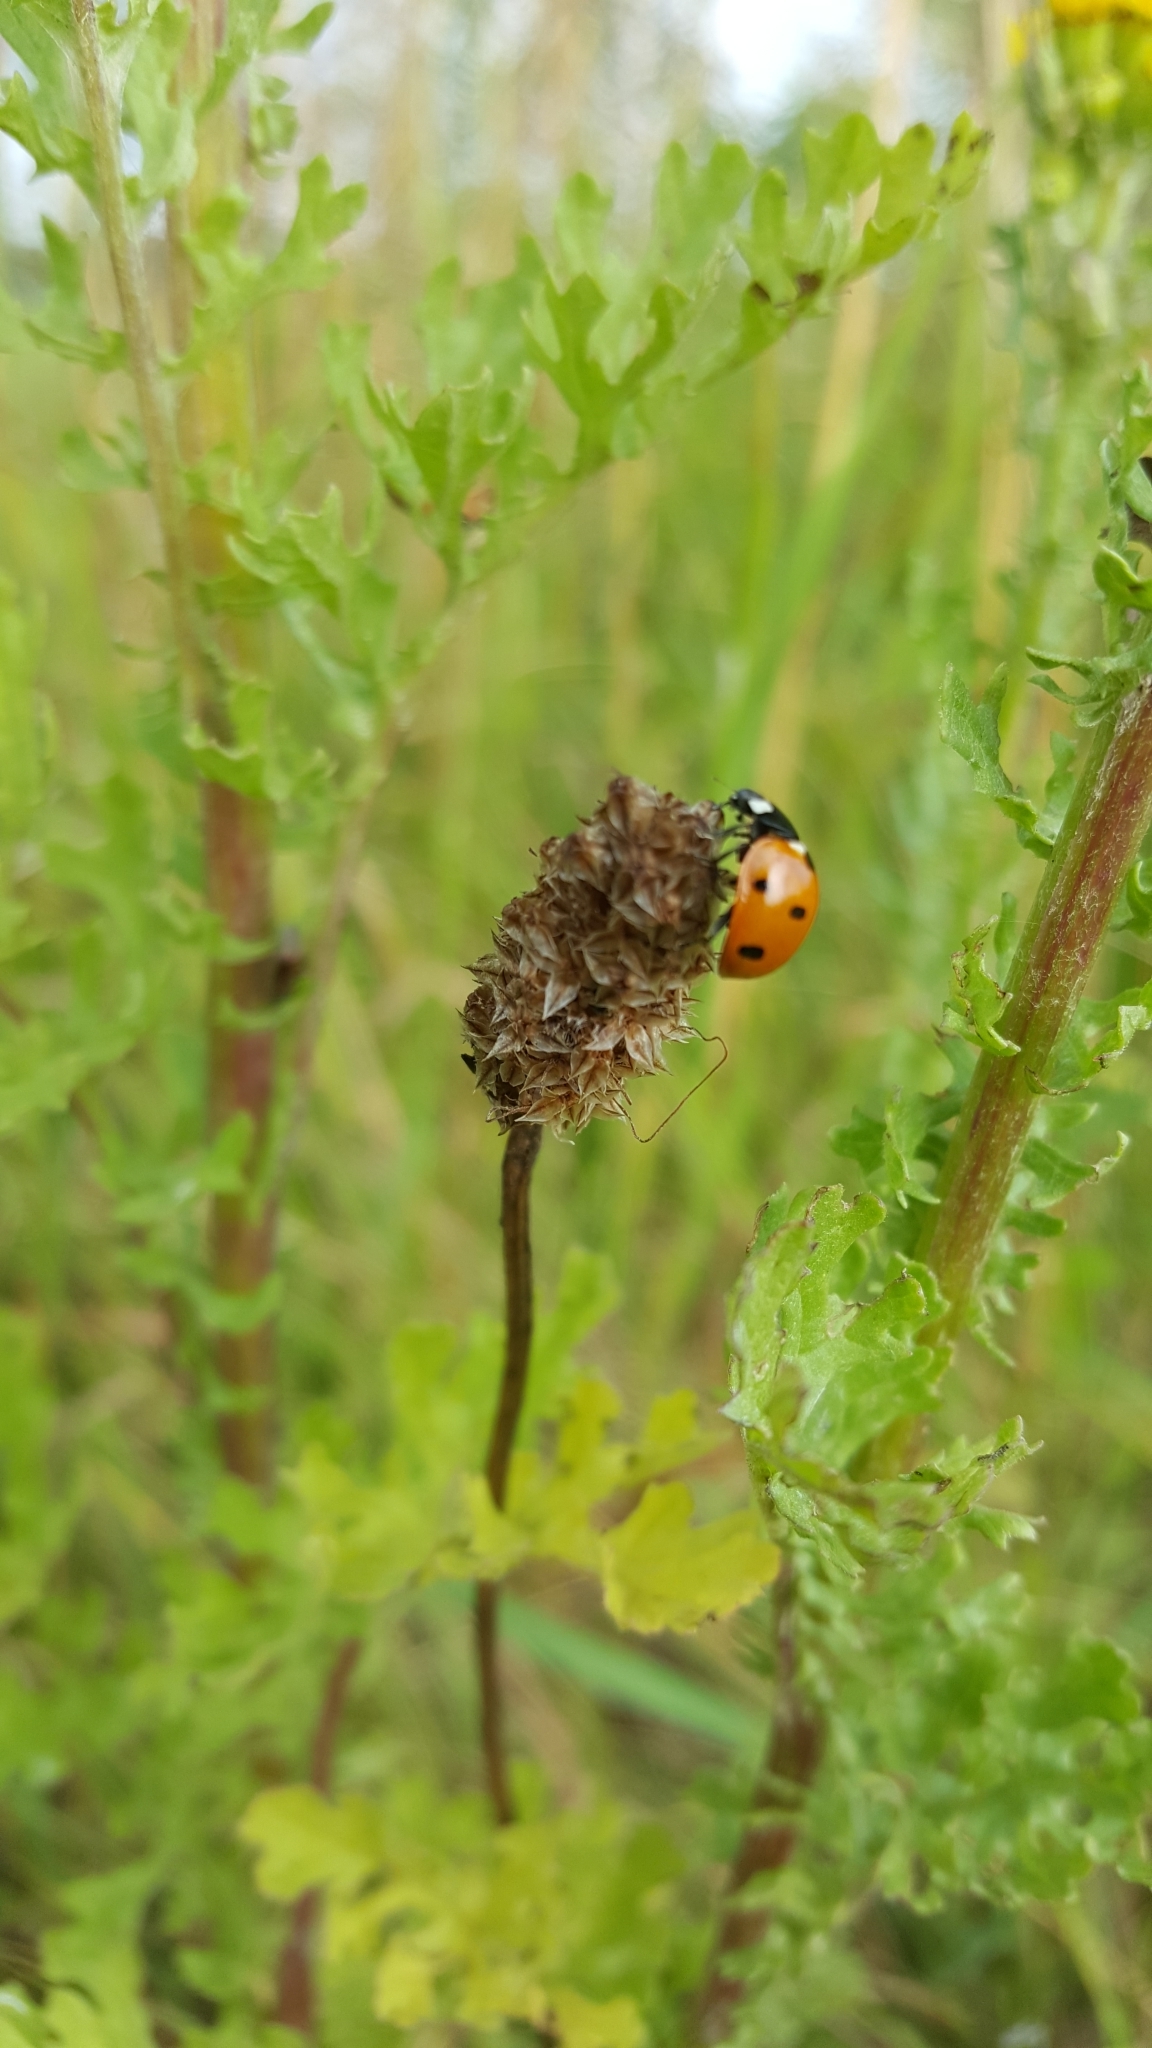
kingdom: Animalia
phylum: Arthropoda
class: Insecta
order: Coleoptera
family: Coccinellidae
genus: Coccinella
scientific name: Coccinella septempunctata
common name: Sevenspotted lady beetle
